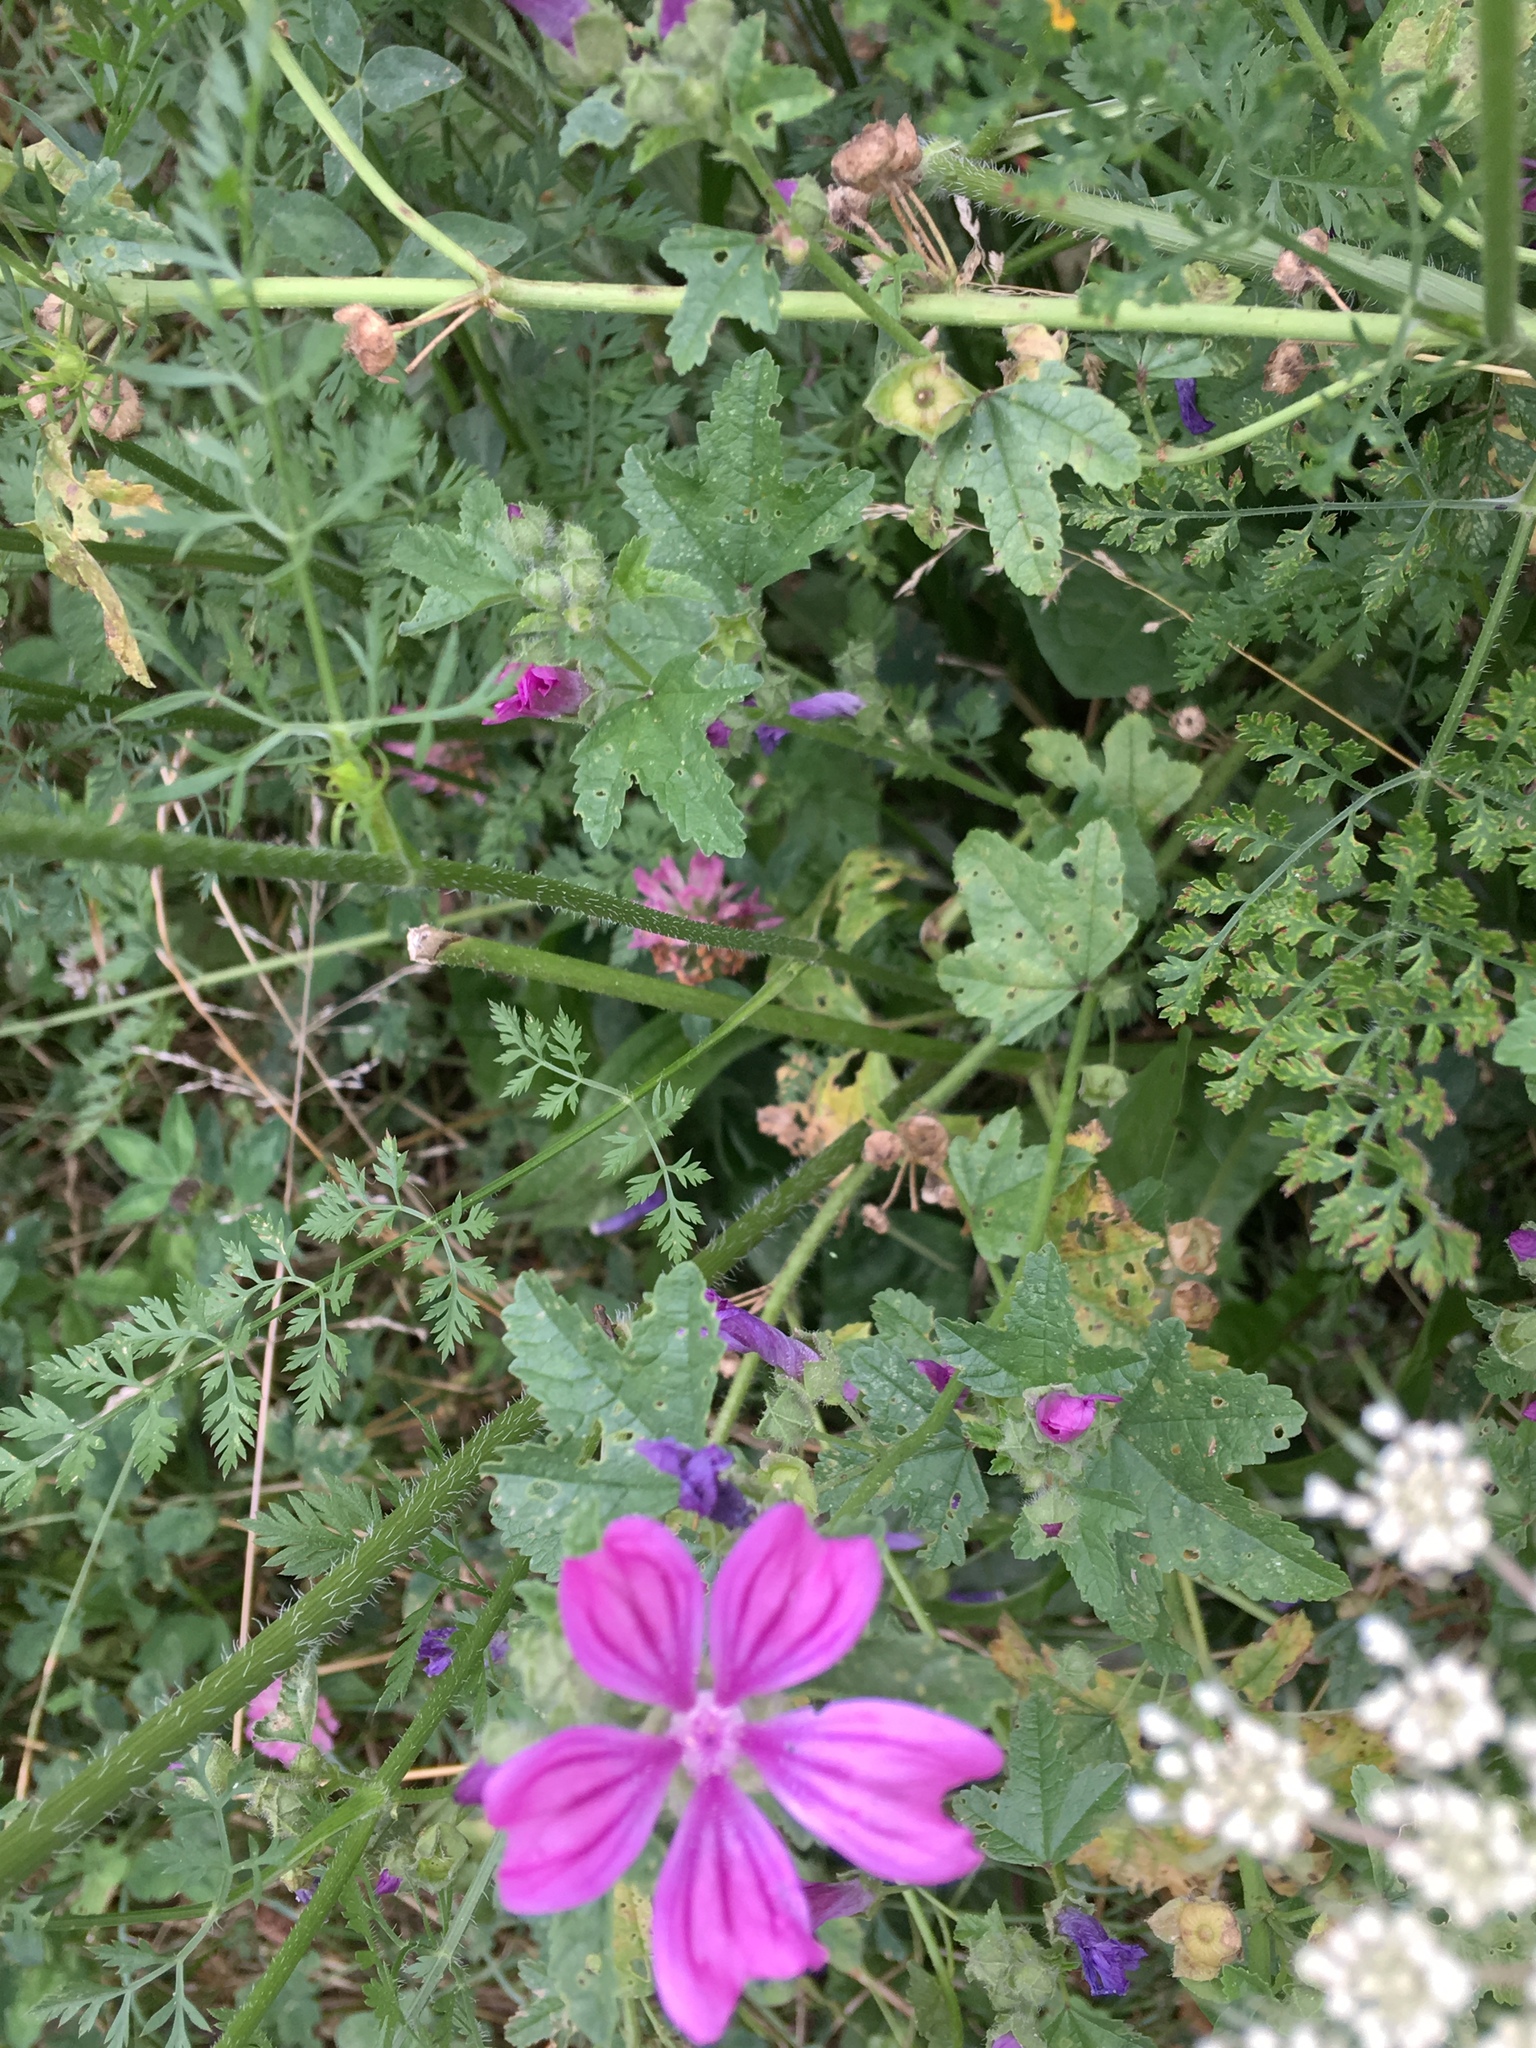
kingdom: Plantae
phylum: Tracheophyta
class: Magnoliopsida
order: Malvales
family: Malvaceae
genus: Malva
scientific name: Malva sylvestris
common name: Common mallow
